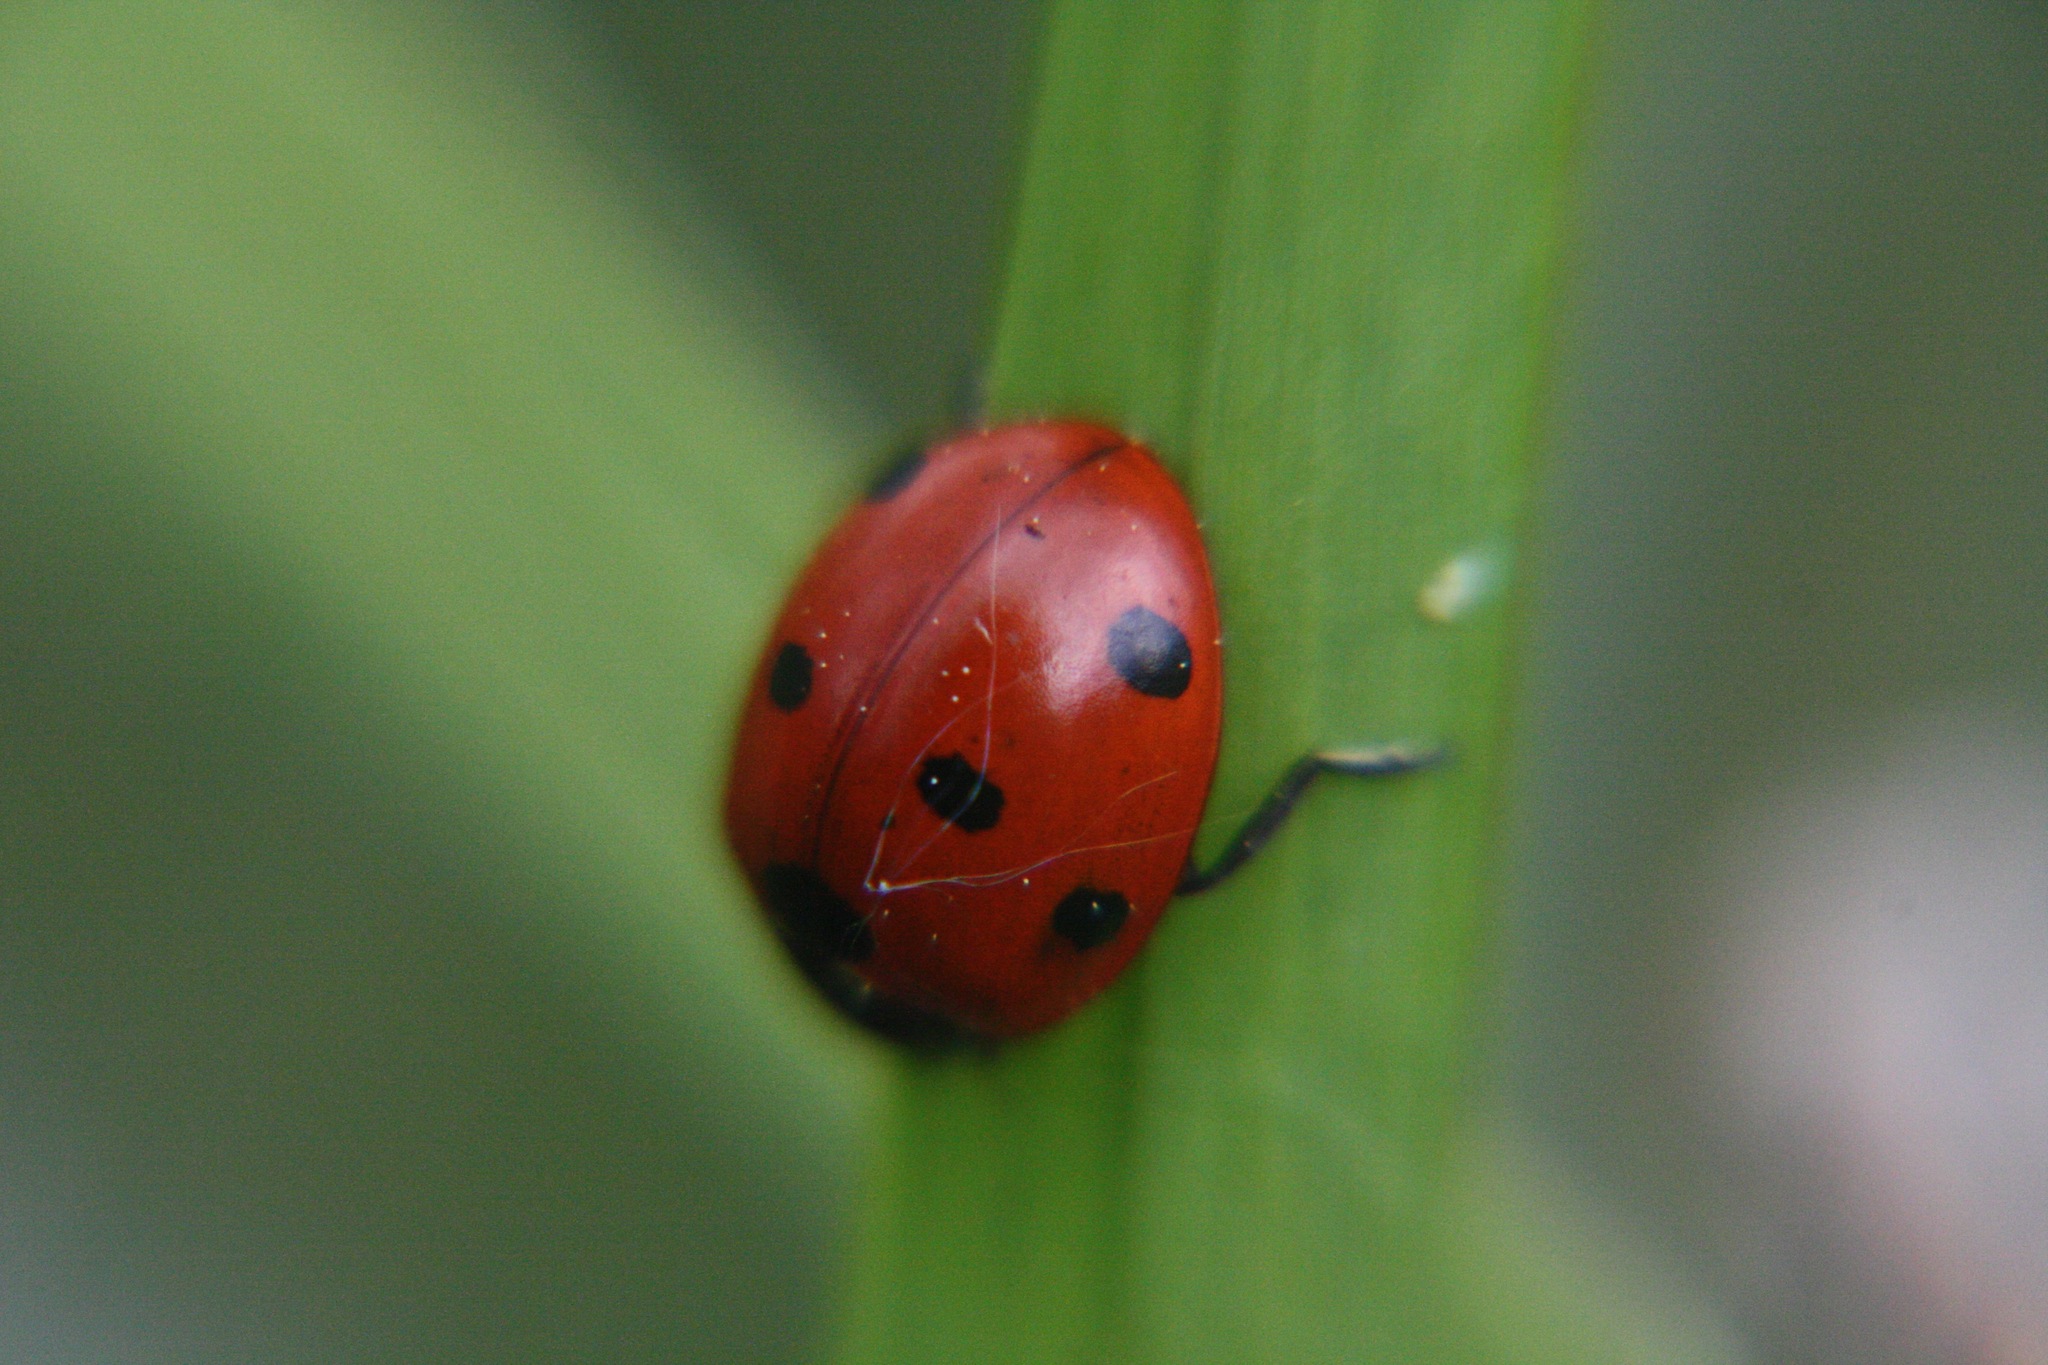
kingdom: Animalia
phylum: Arthropoda
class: Insecta
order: Coleoptera
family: Coccinellidae
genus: Coccinella
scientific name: Coccinella septempunctata
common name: Sevenspotted lady beetle
